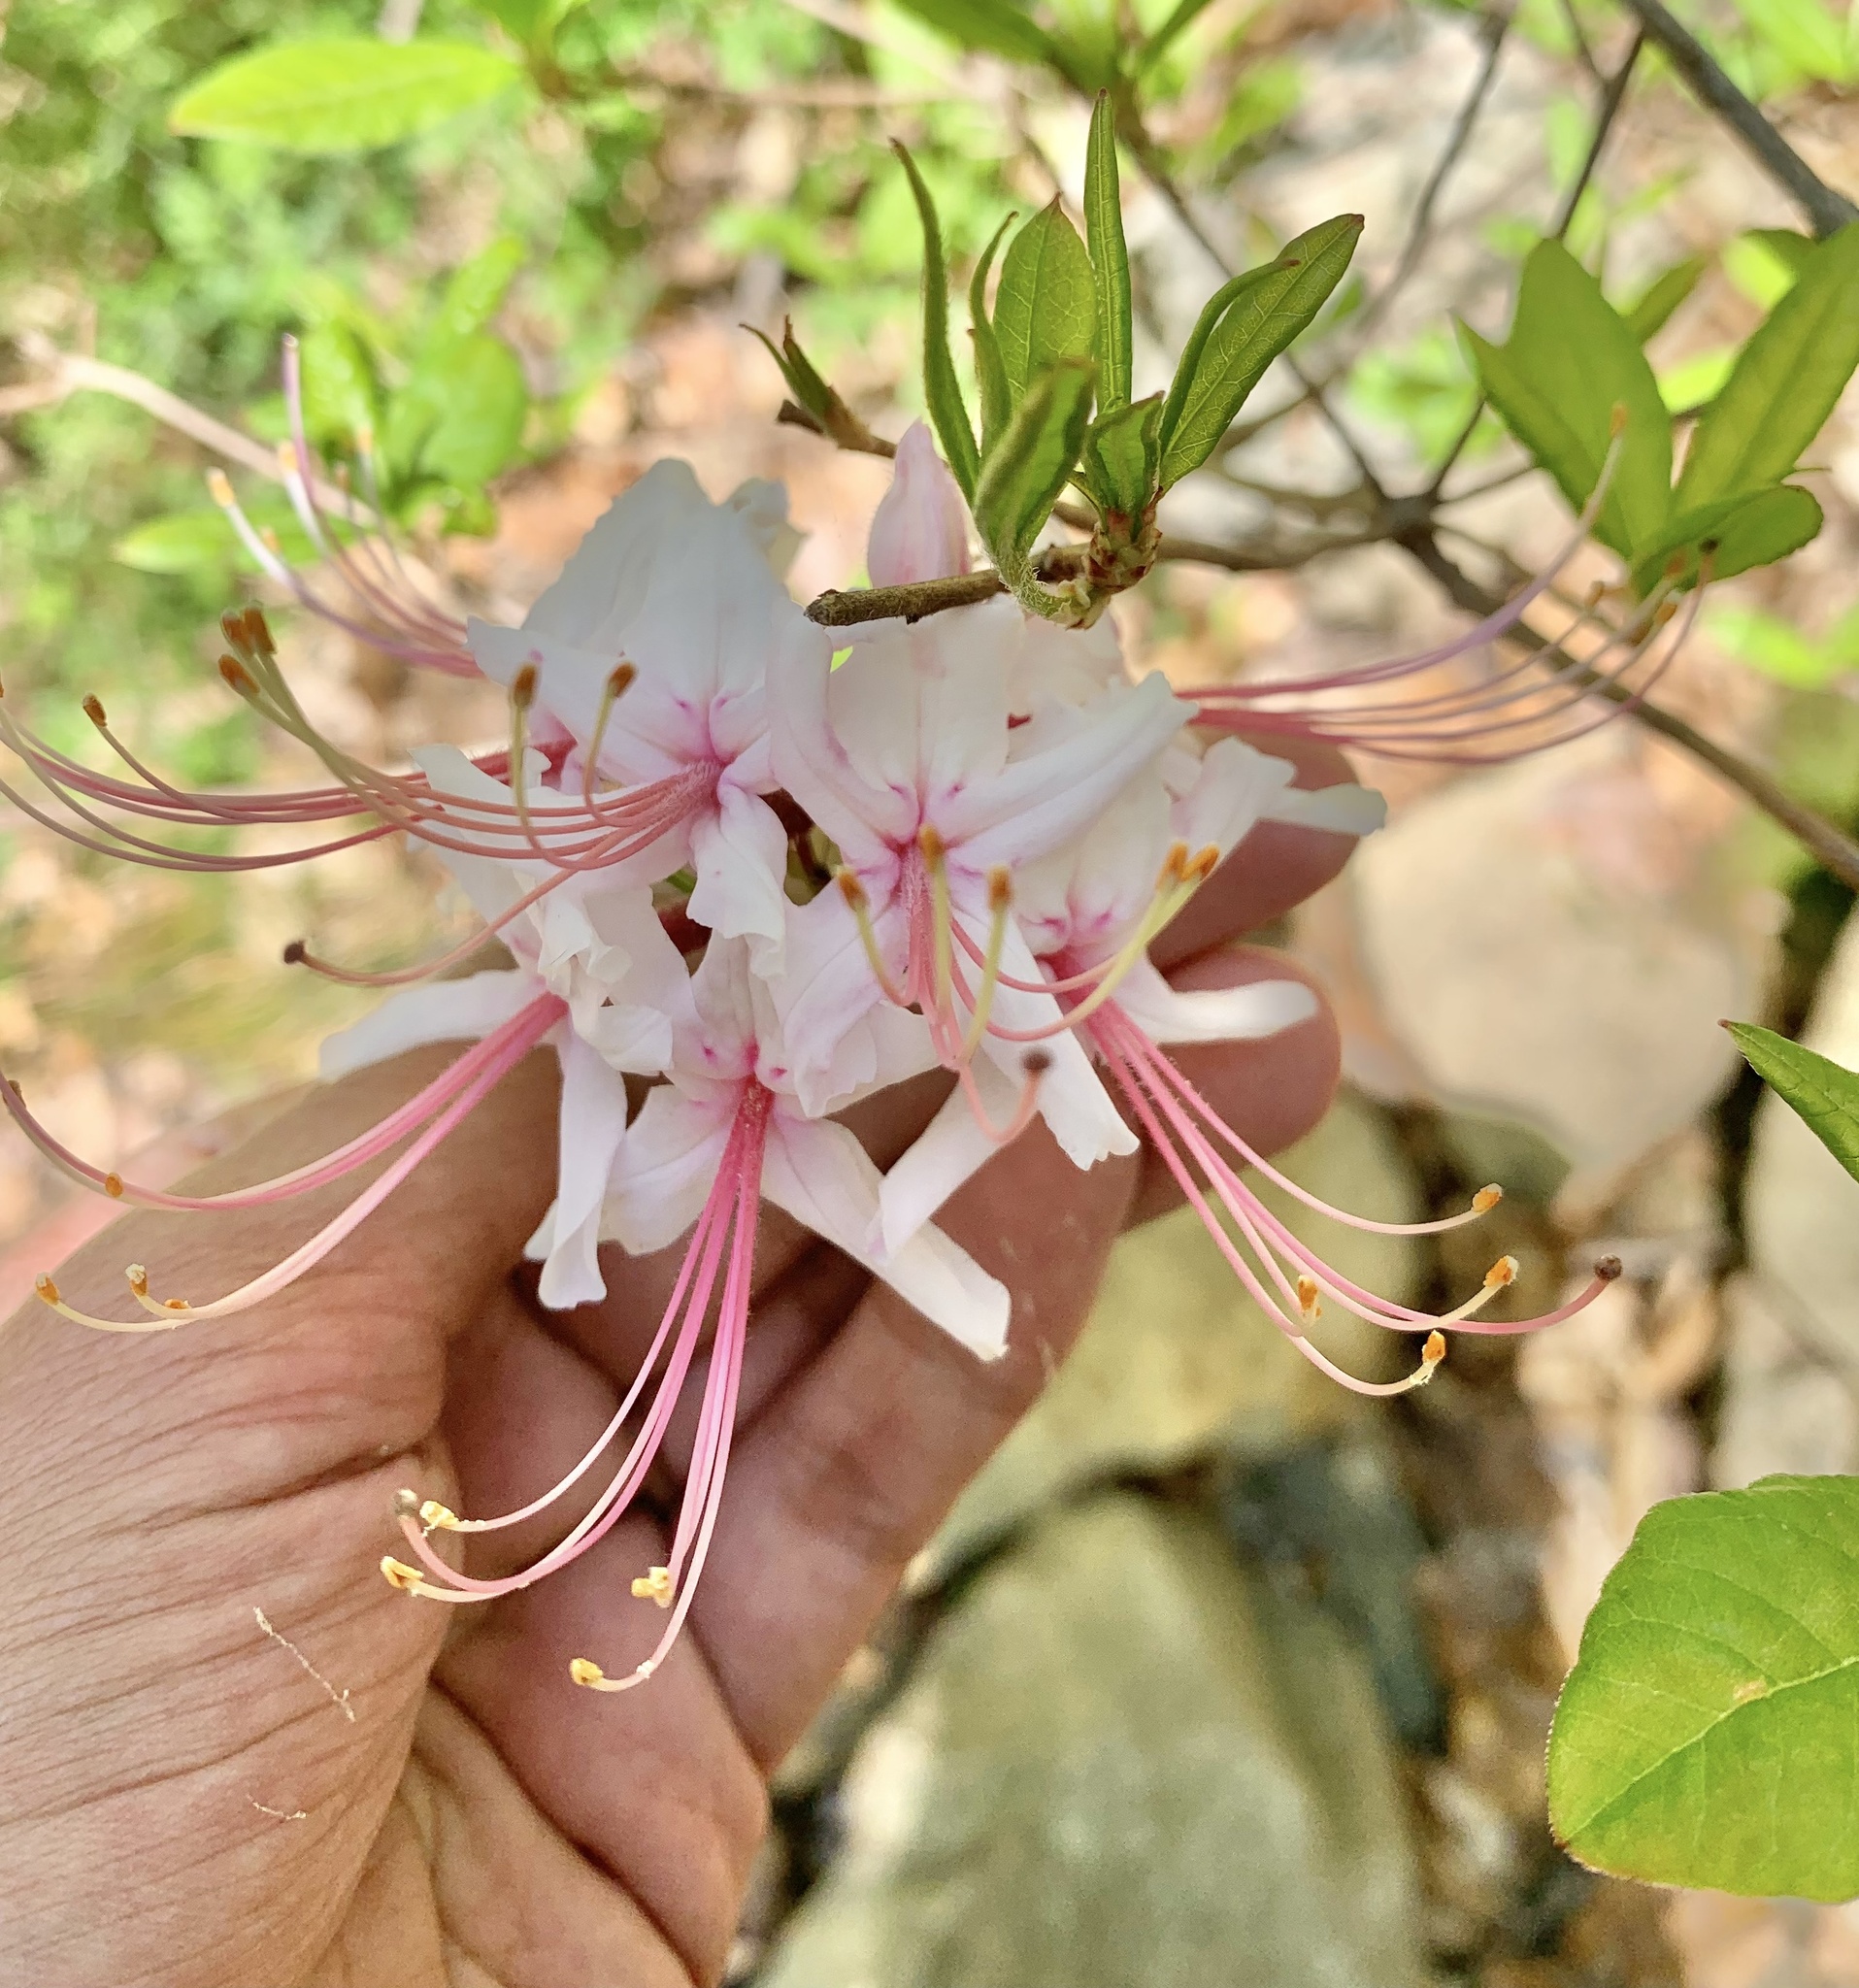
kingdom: Plantae
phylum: Tracheophyta
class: Magnoliopsida
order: Ericales
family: Ericaceae
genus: Rhododendron
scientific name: Rhododendron periclymenoides
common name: Election-pink
